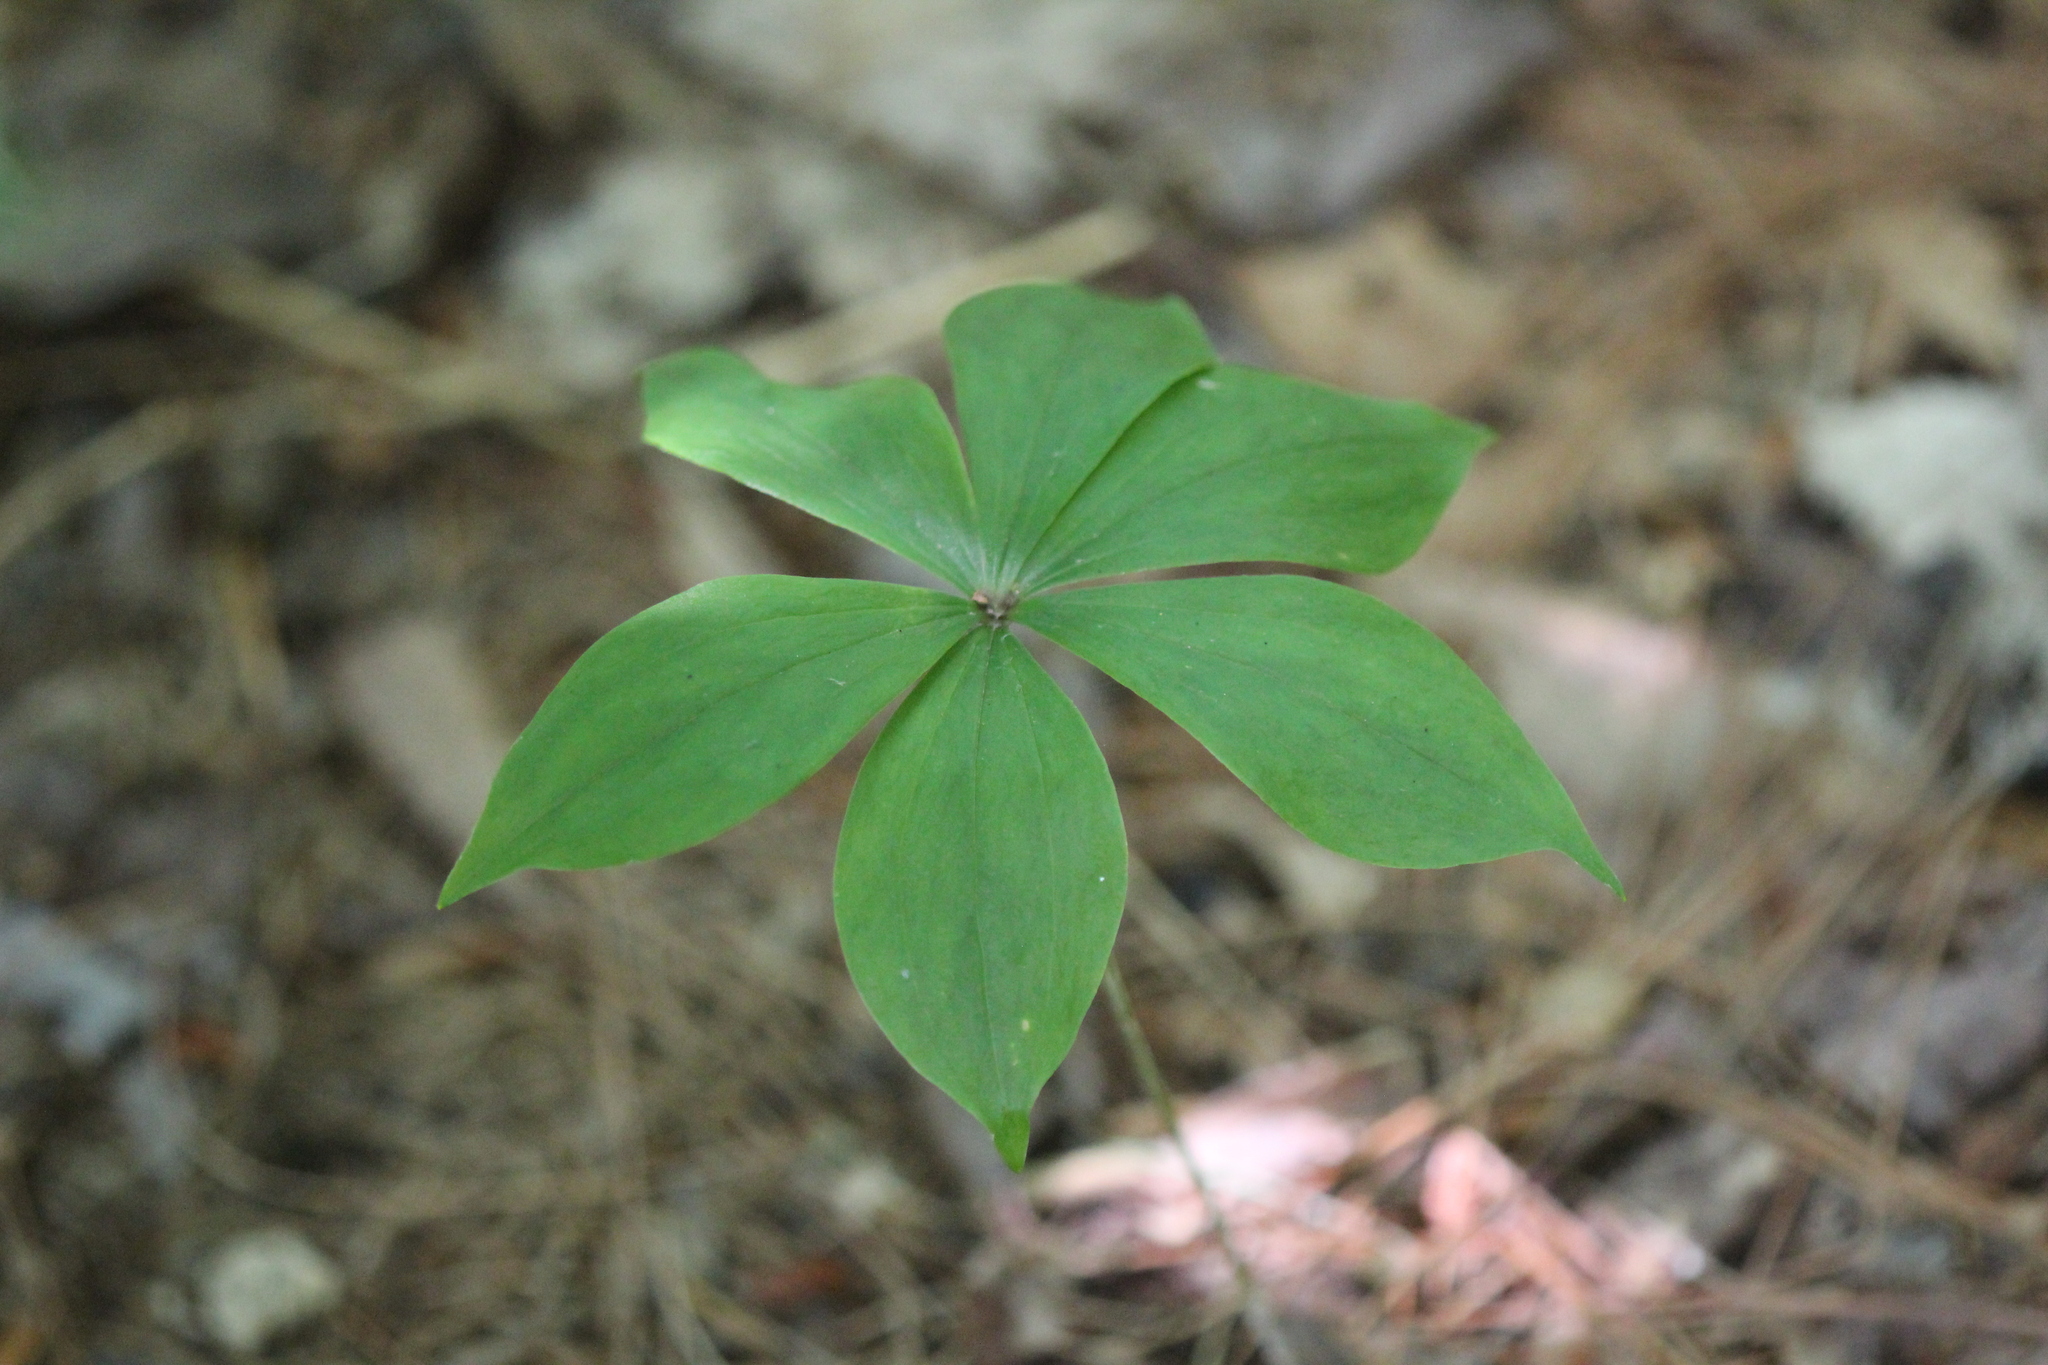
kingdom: Plantae
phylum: Tracheophyta
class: Liliopsida
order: Liliales
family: Liliaceae
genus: Medeola
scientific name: Medeola virginiana
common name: Indian cucumber-root
